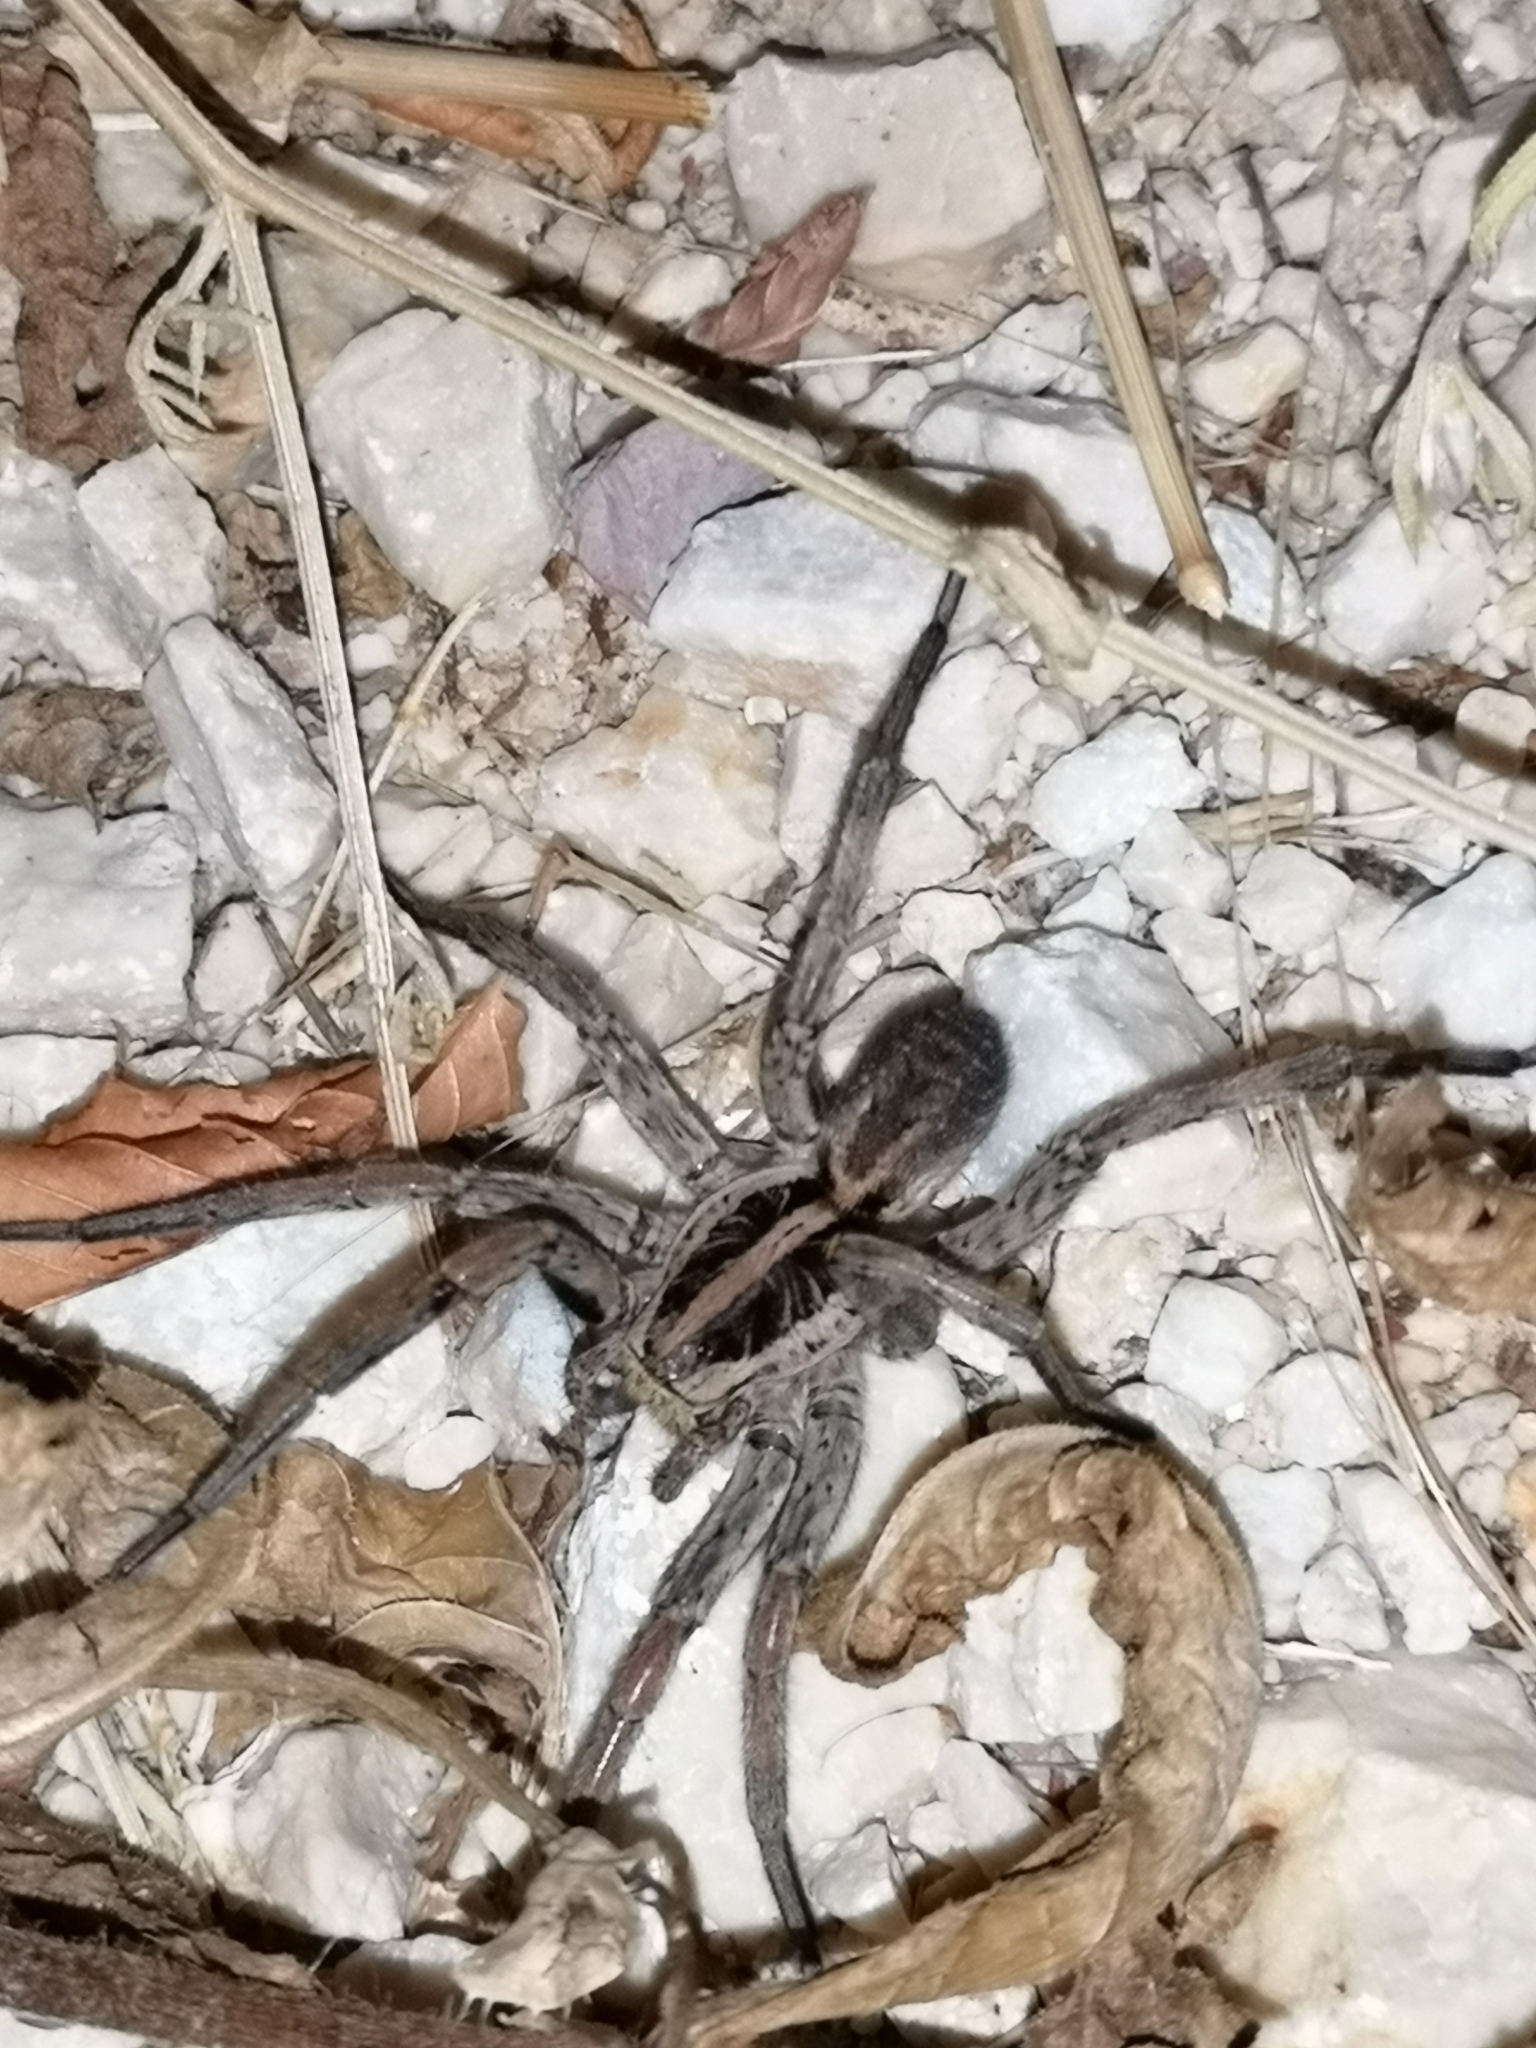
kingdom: Animalia
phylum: Arthropoda
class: Arachnida
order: Araneae
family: Lycosidae
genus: Hogna
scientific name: Hogna radiata
